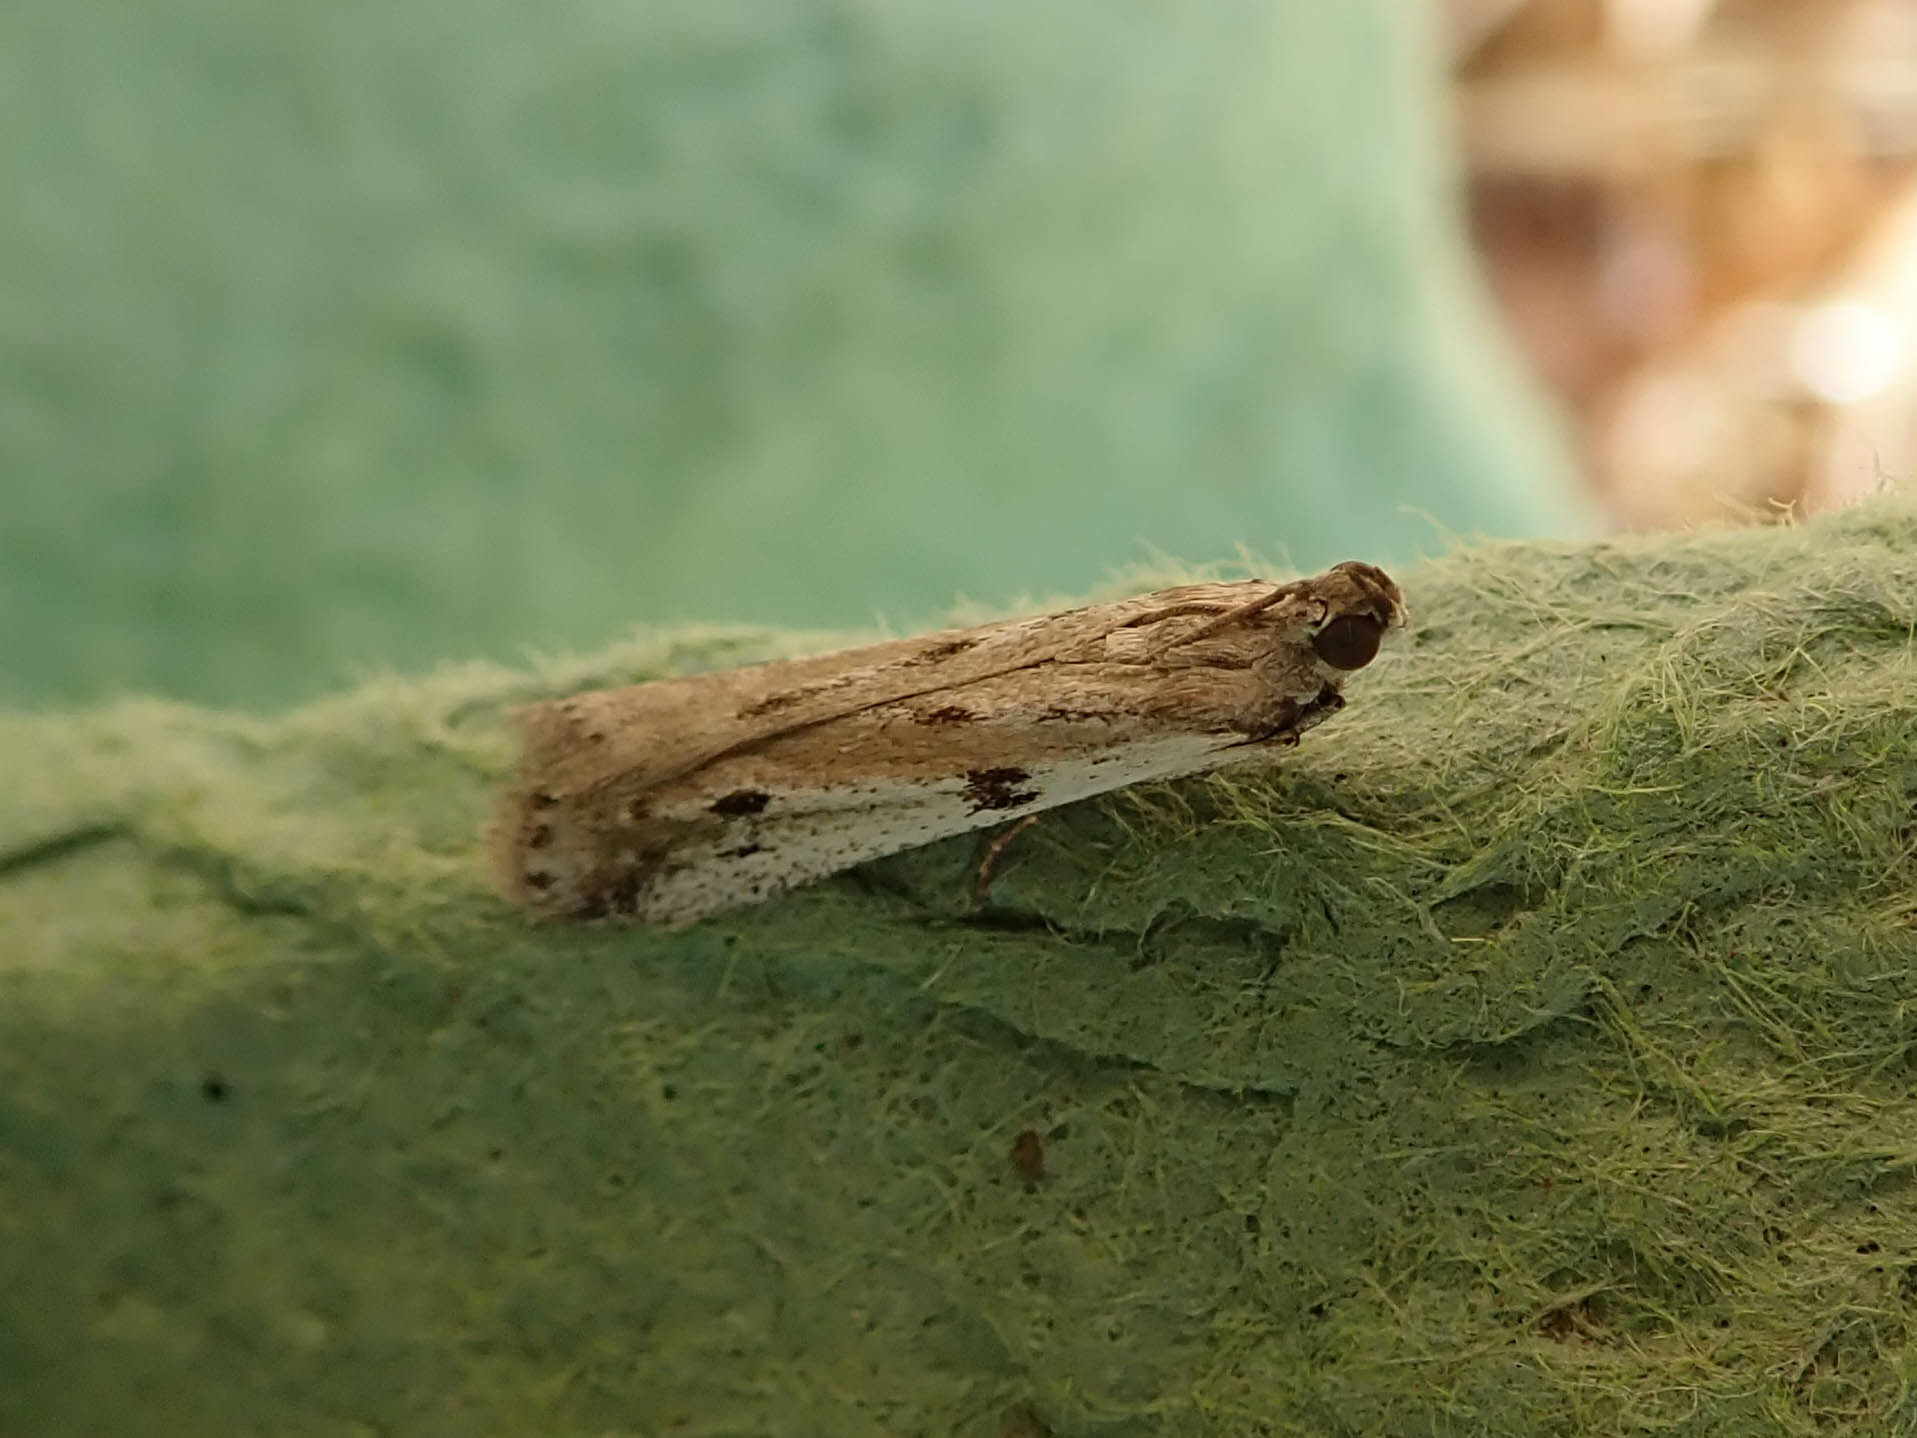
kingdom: Animalia
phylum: Arthropoda
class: Insecta
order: Lepidoptera
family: Pyralidae
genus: Phycitodes
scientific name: Phycitodes binaevella
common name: Ermine knot-horn
